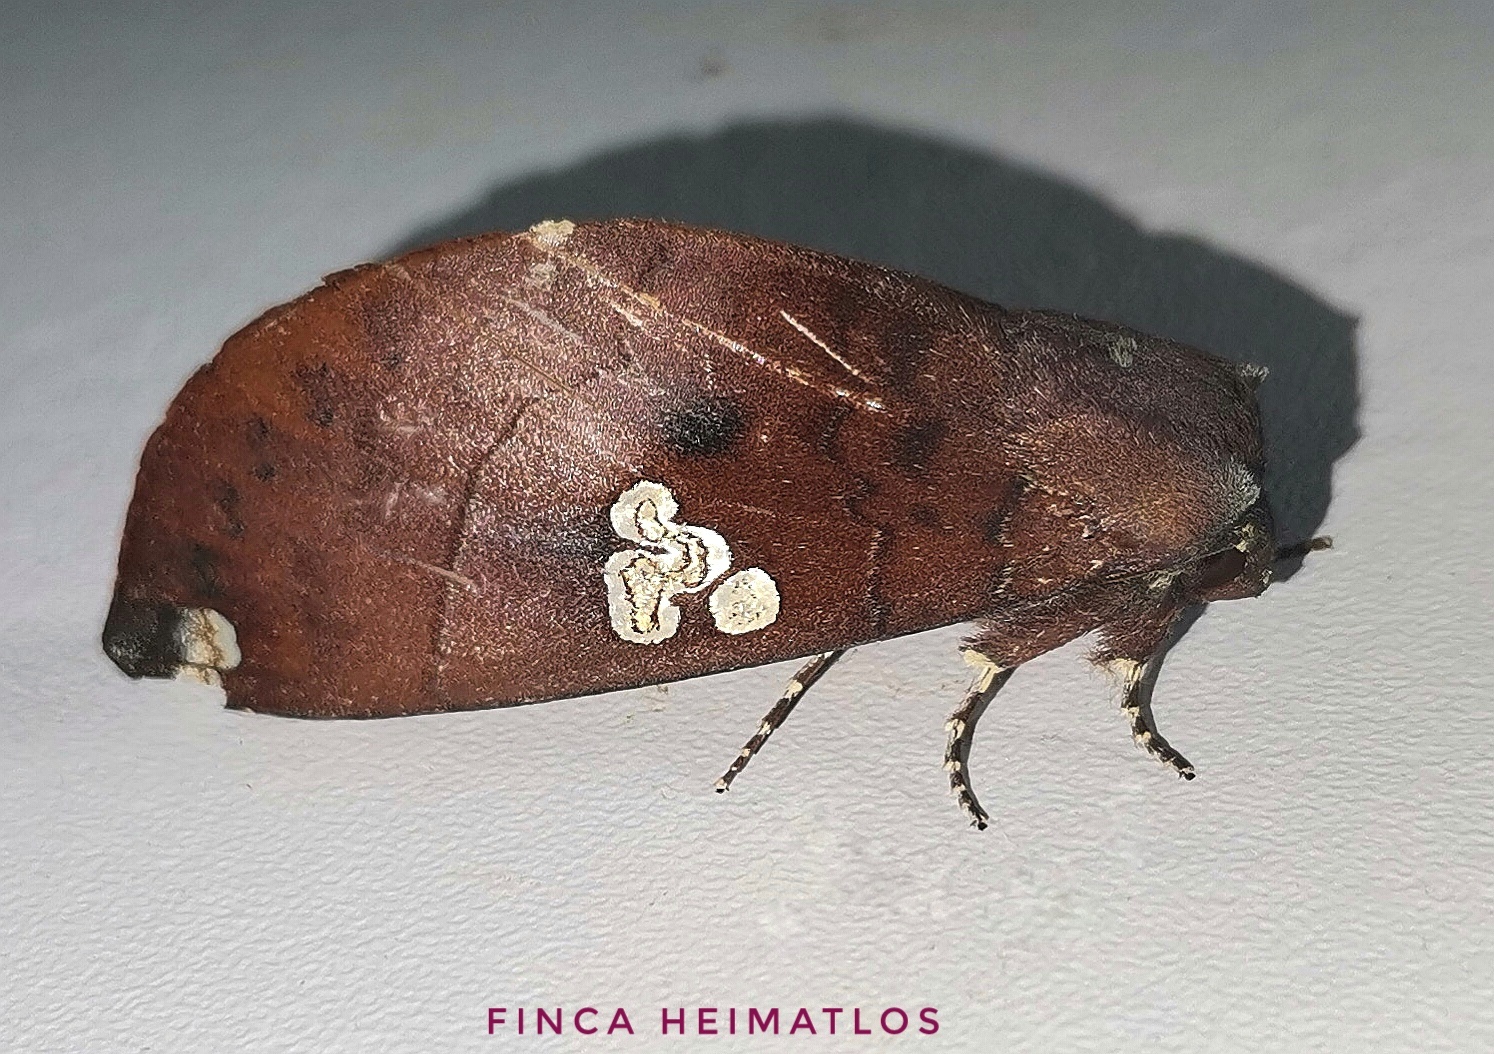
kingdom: Animalia
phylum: Arthropoda
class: Insecta
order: Lepidoptera
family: Notodontidae
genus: Hapigia
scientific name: Hapigia plateada
